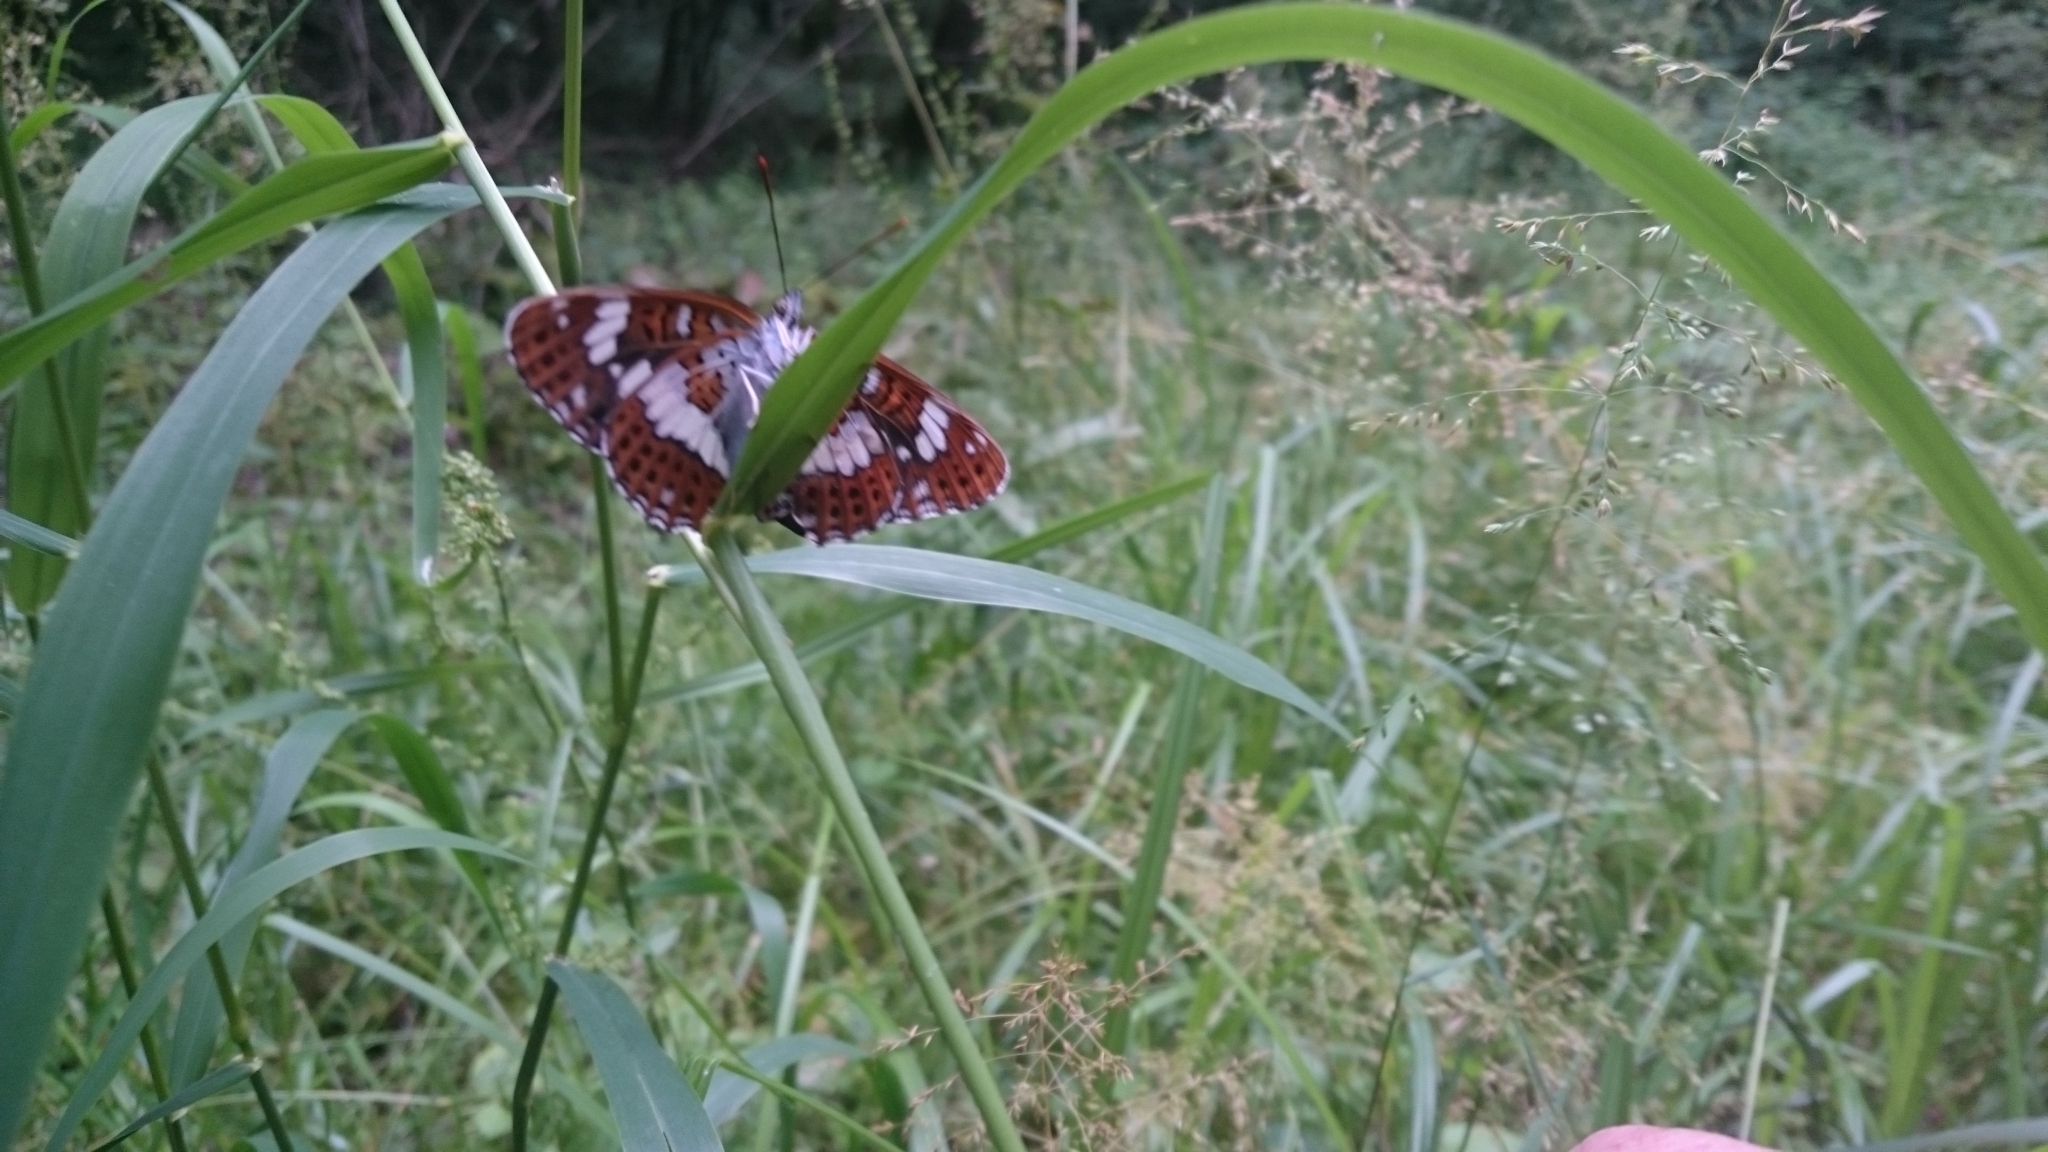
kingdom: Animalia
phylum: Arthropoda
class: Insecta
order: Lepidoptera
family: Nymphalidae
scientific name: Nymphalidae
